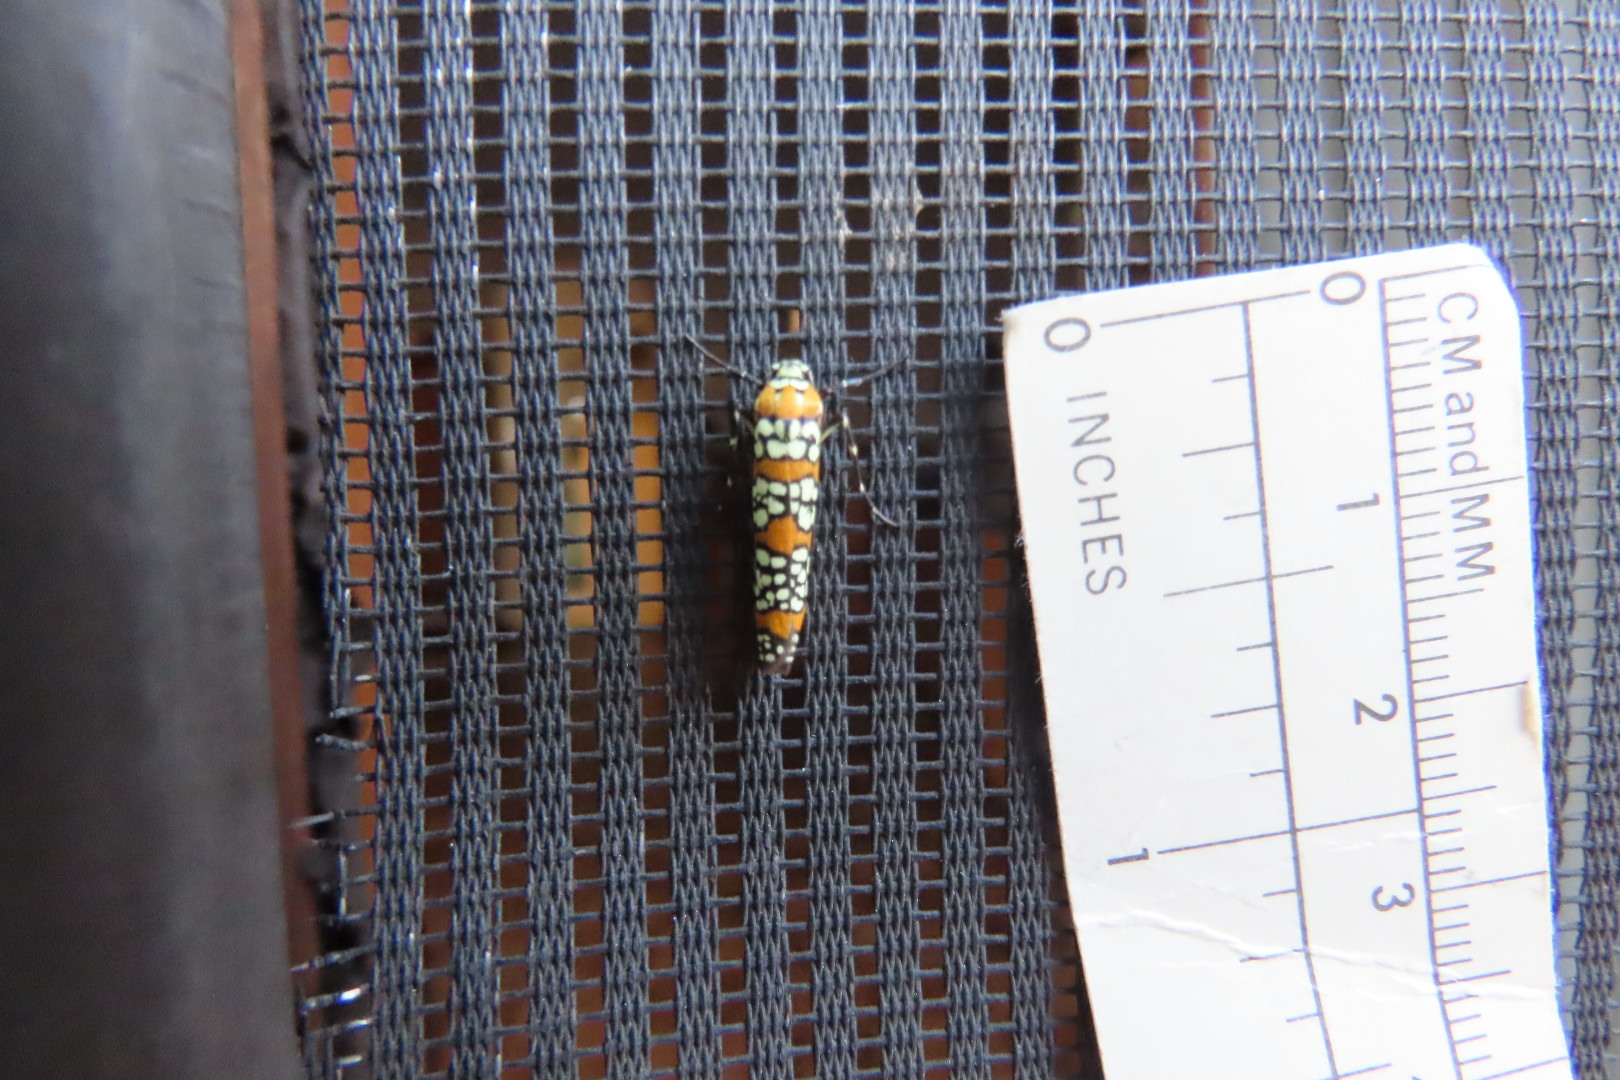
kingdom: Animalia
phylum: Arthropoda
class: Insecta
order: Lepidoptera
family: Attevidae
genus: Atteva
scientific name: Atteva punctella
